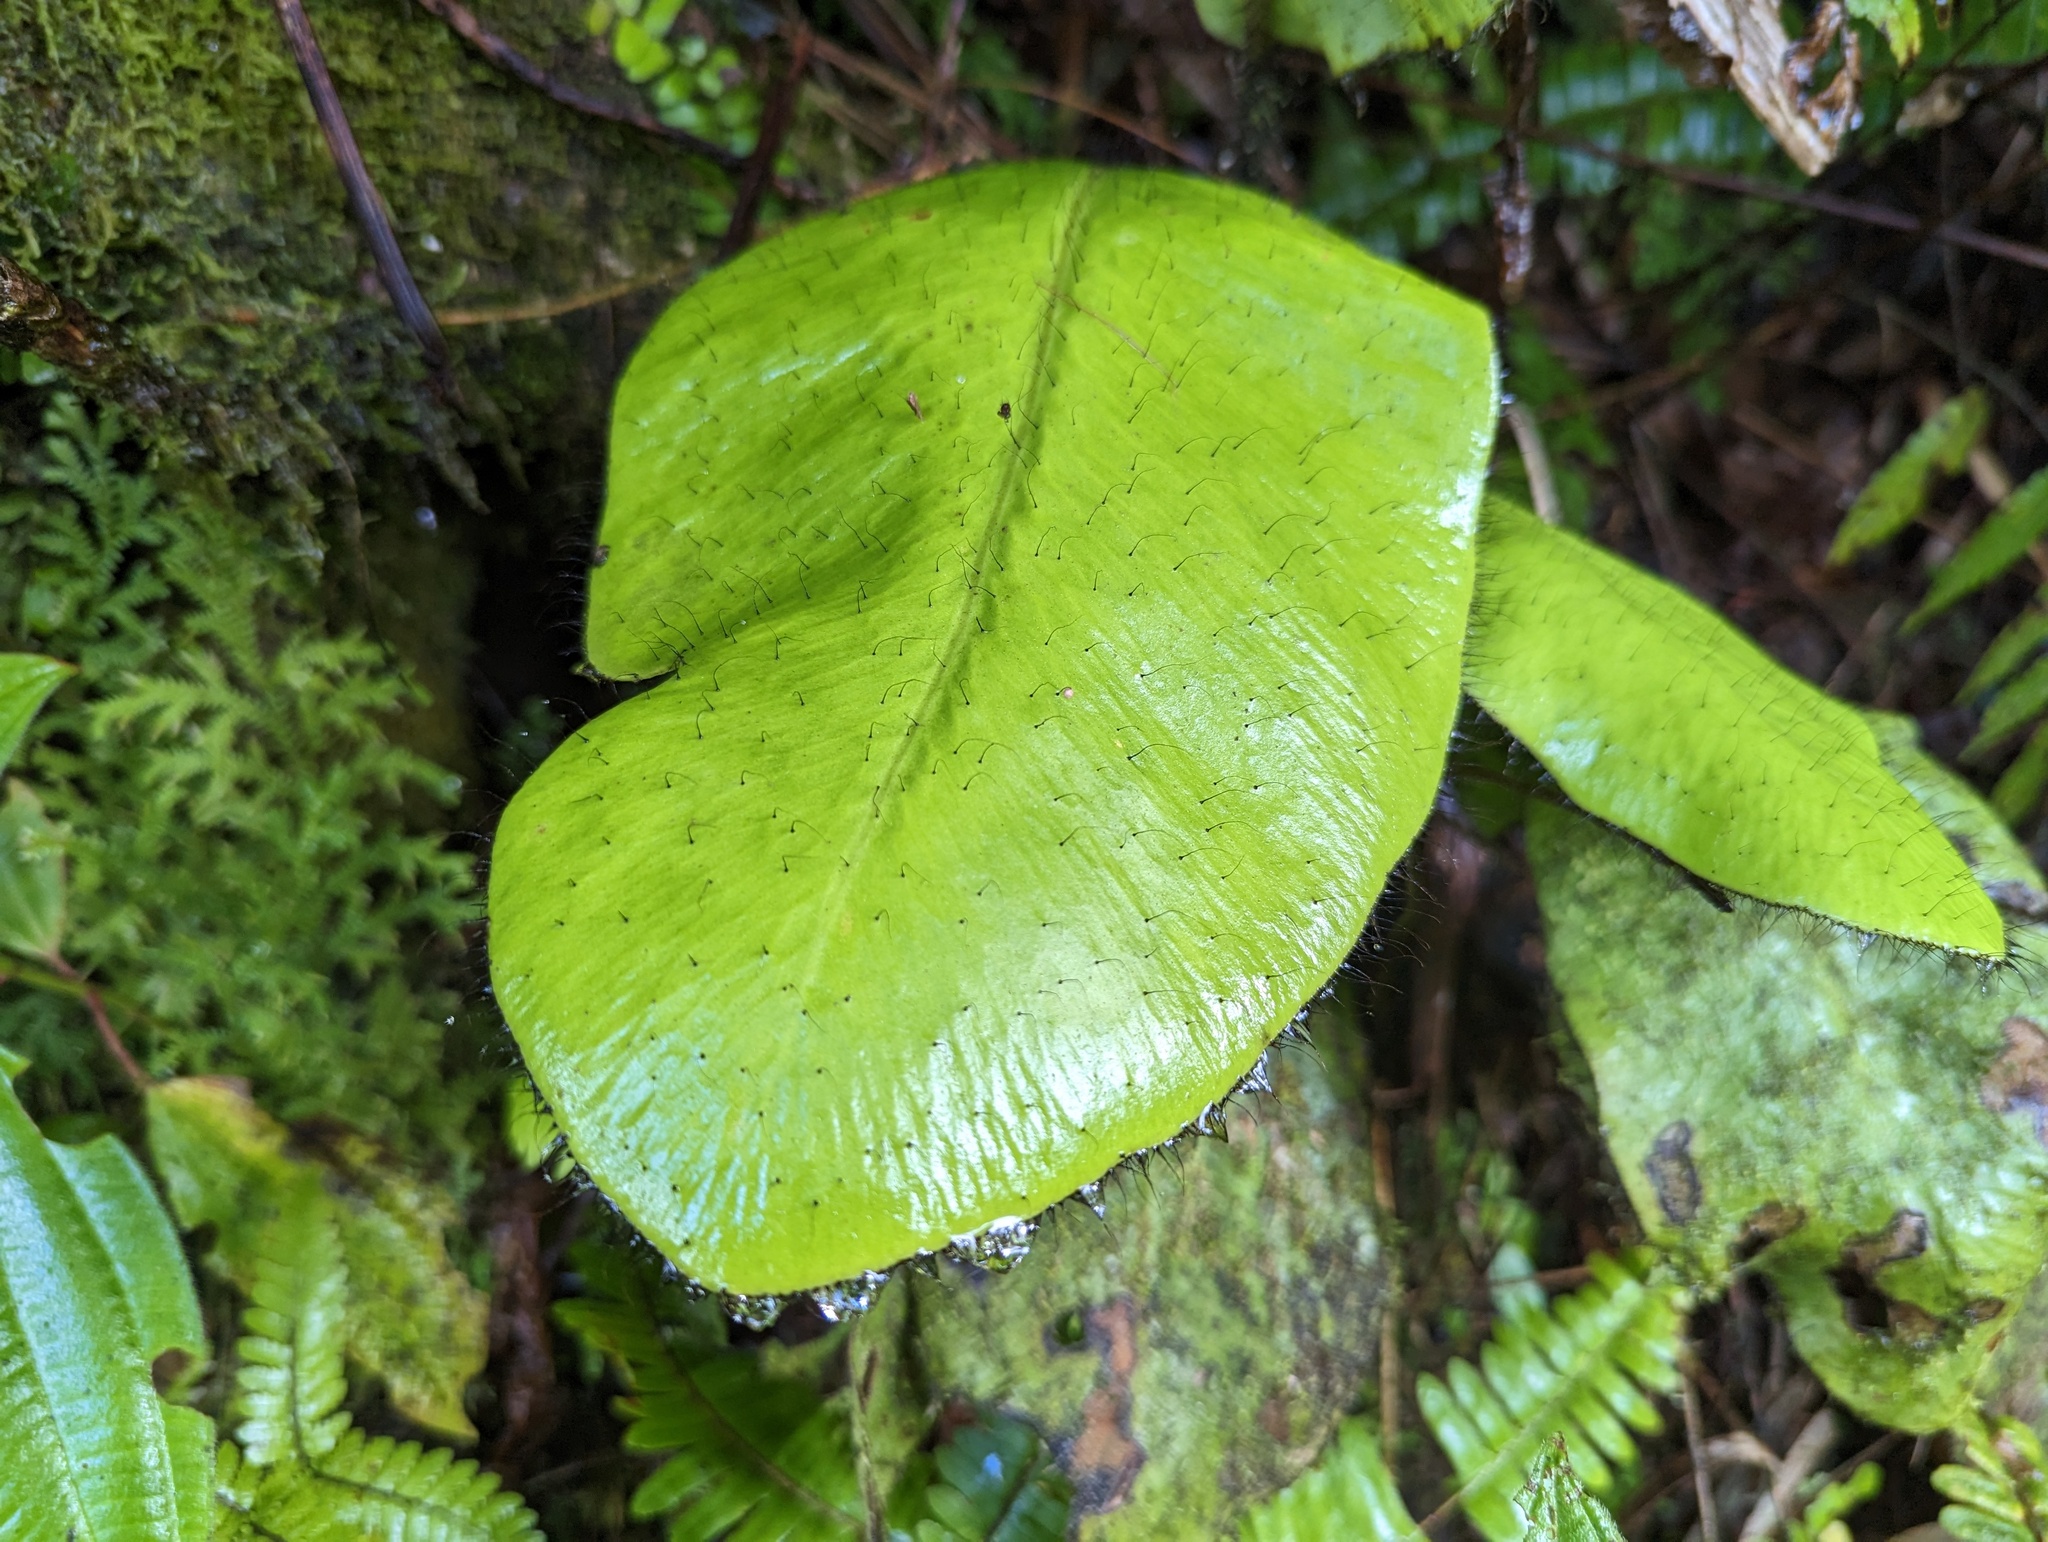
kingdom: Plantae
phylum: Tracheophyta
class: Polypodiopsida
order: Polypodiales
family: Dryopteridaceae
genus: Elaphoglossum
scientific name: Elaphoglossum crinitum
